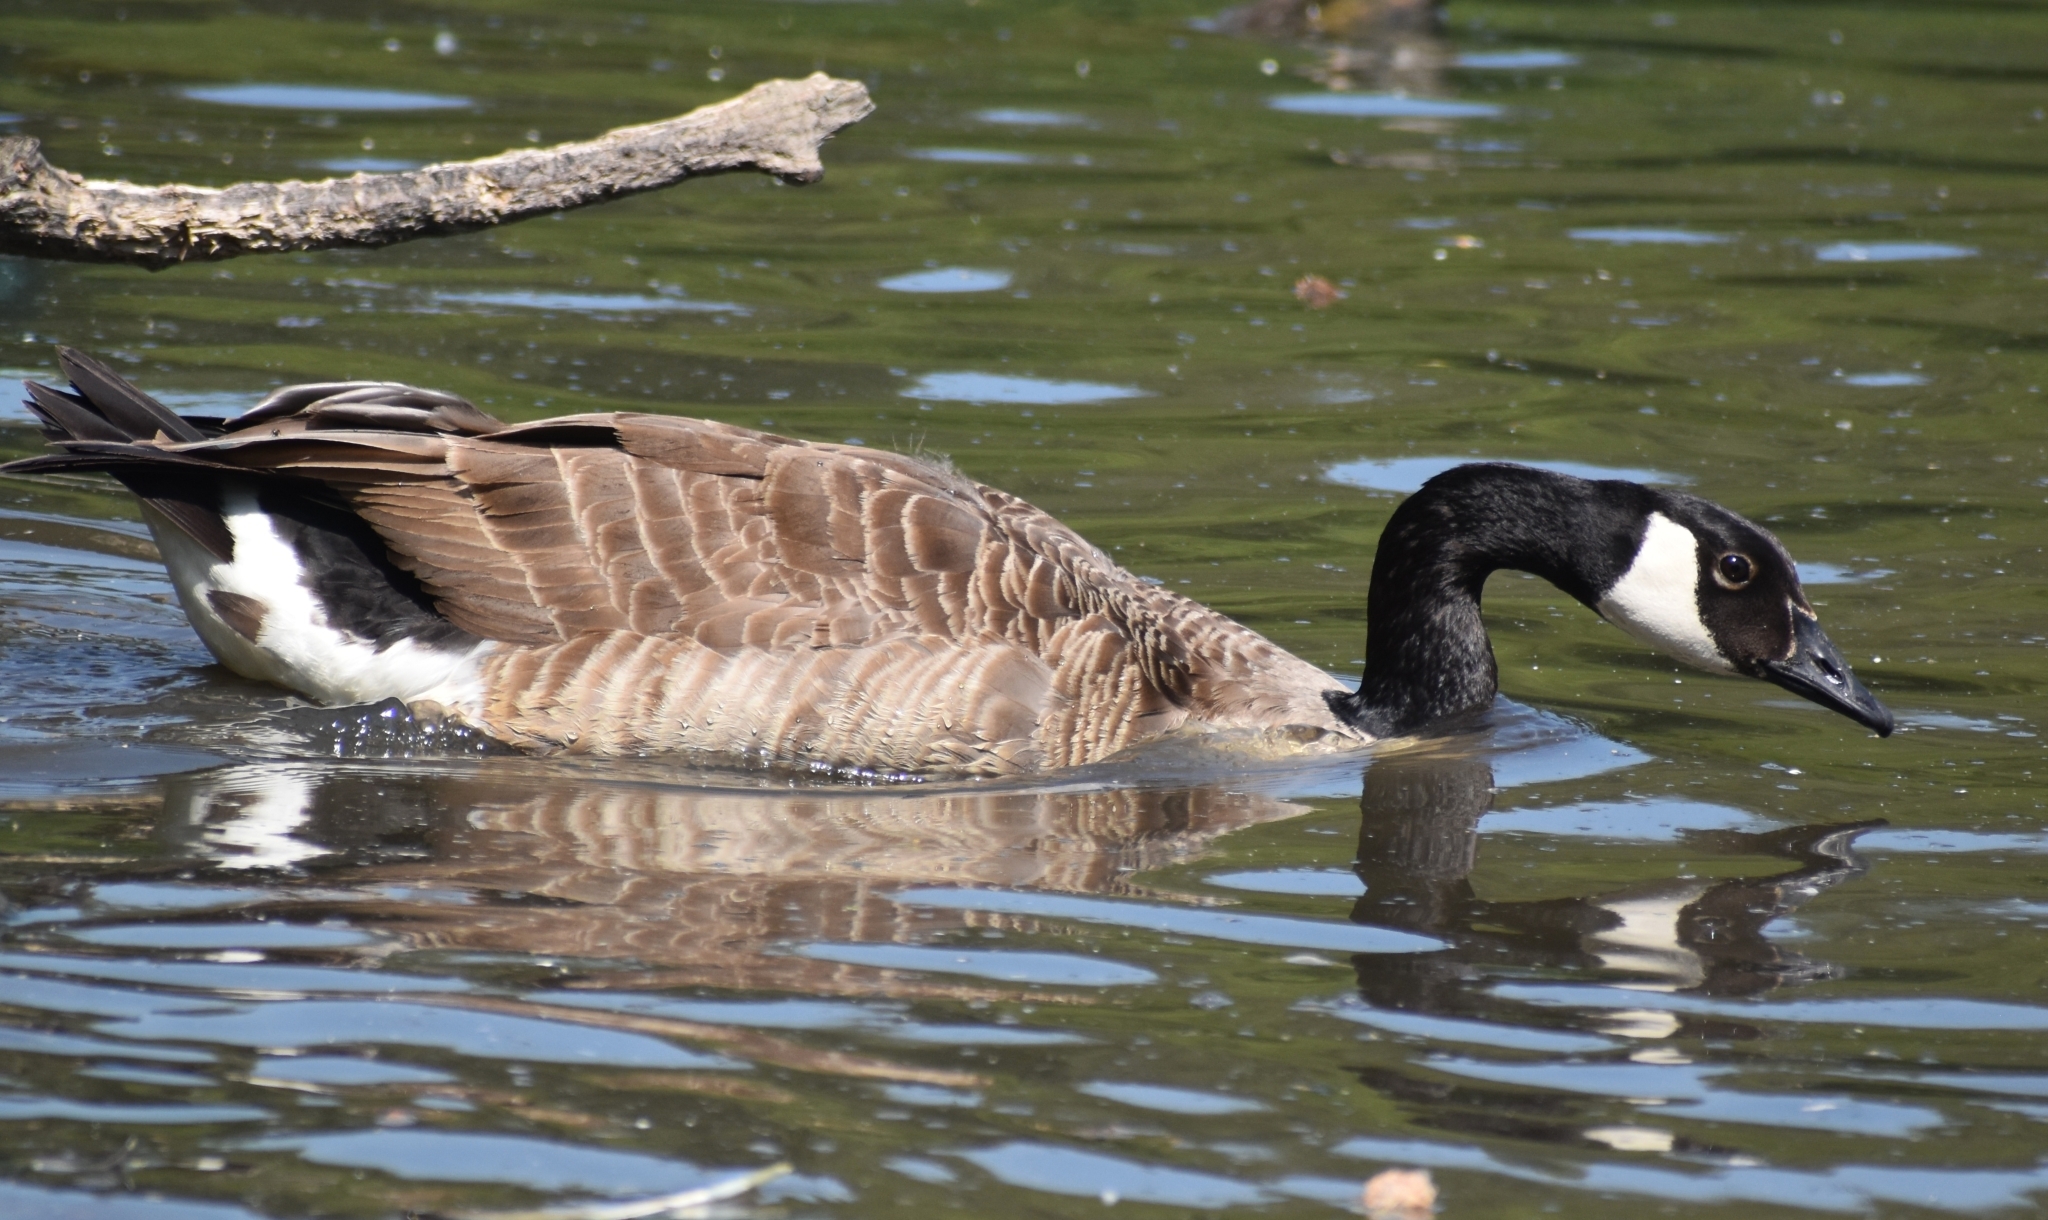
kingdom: Animalia
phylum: Chordata
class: Aves
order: Anseriformes
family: Anatidae
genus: Branta
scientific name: Branta canadensis
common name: Canada goose
